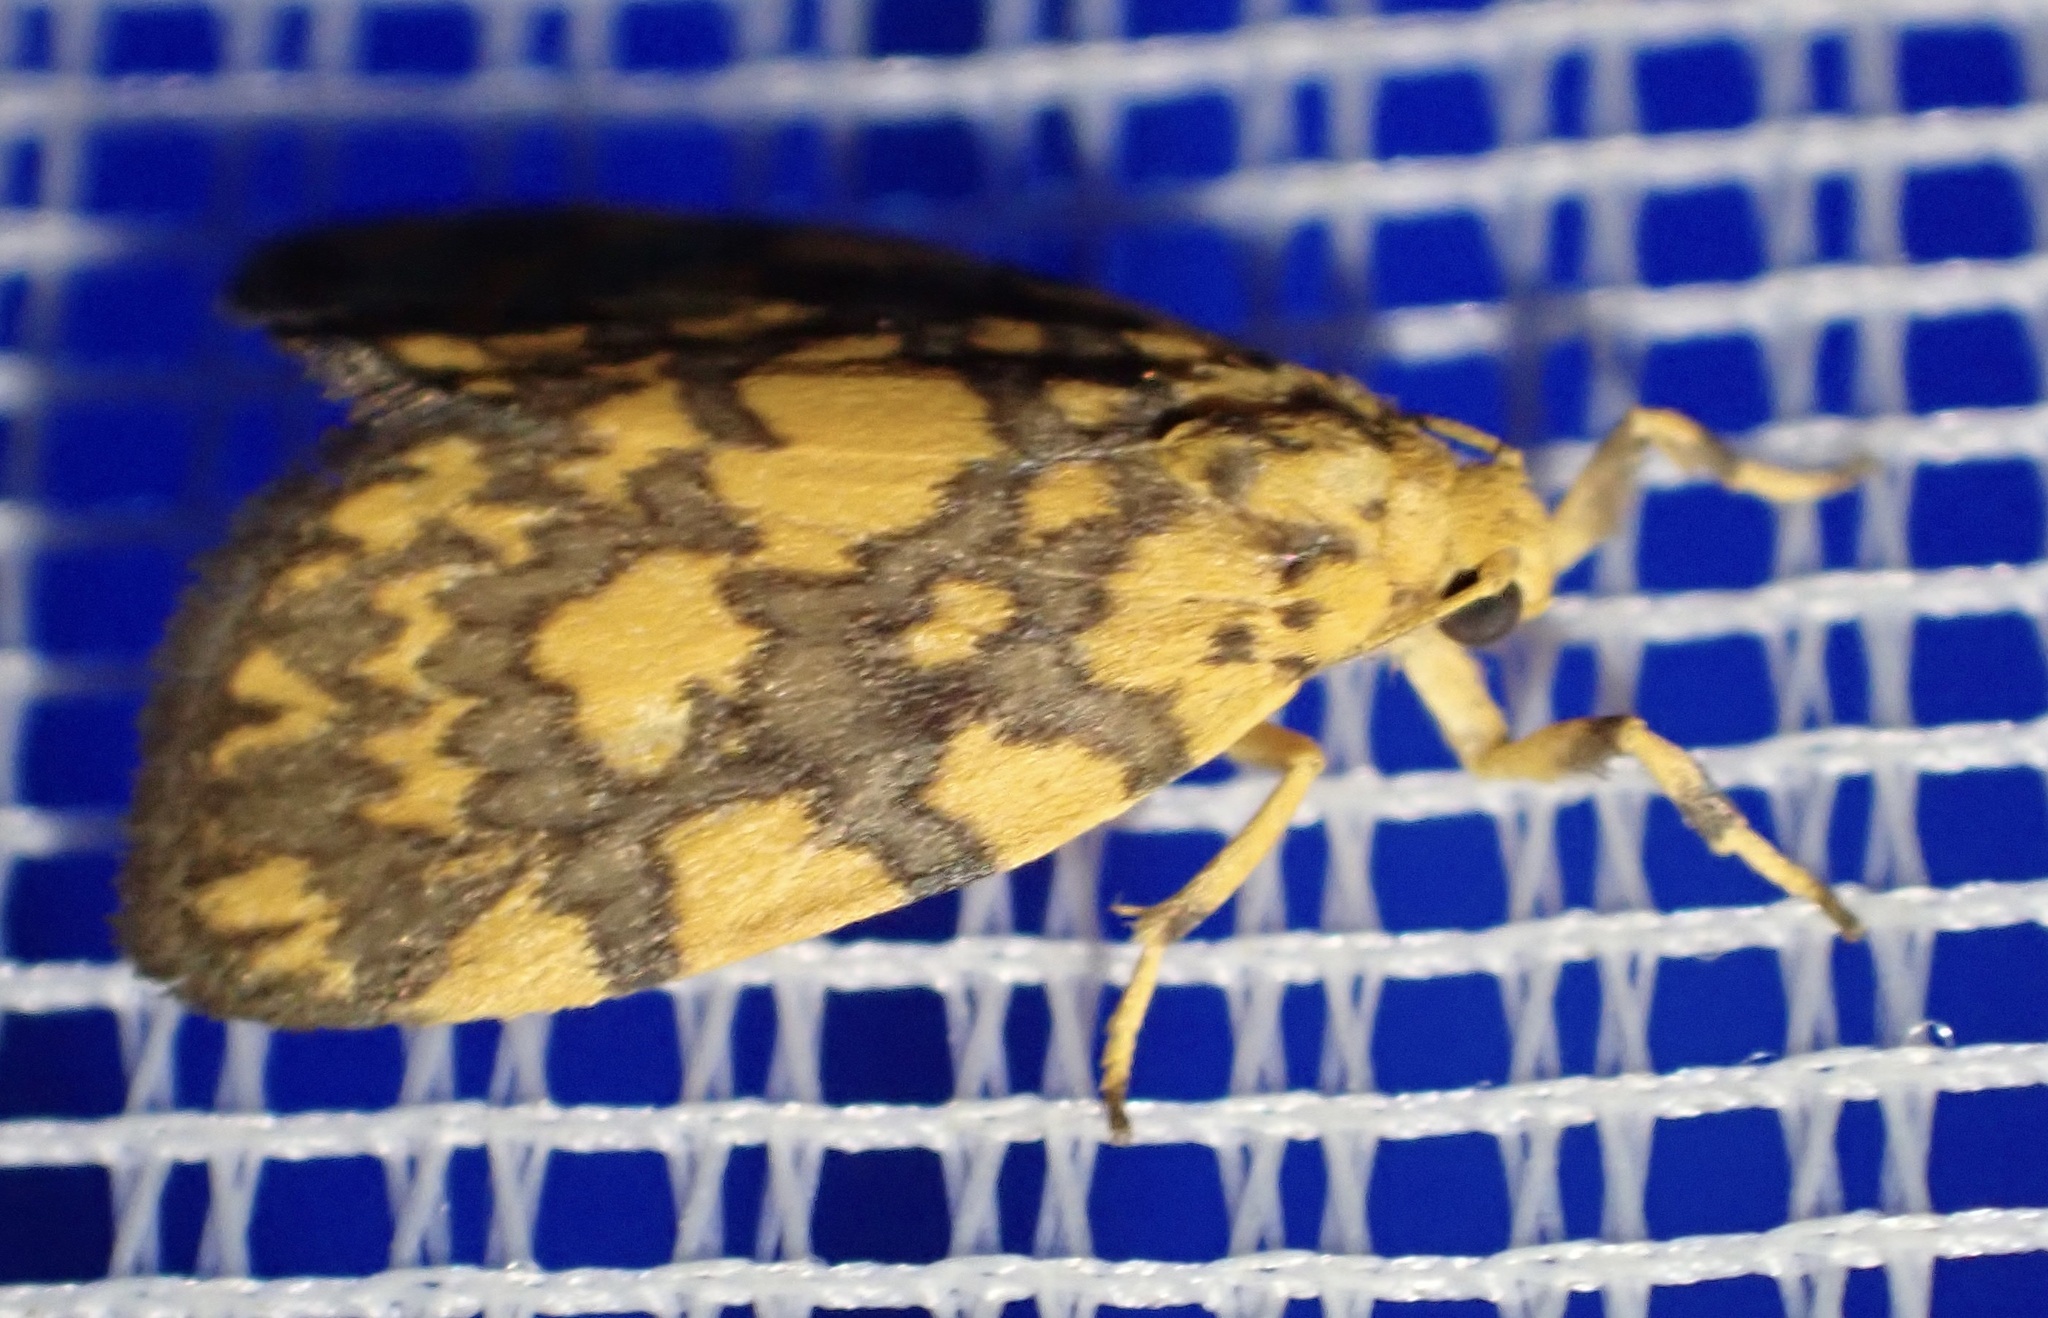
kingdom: Animalia
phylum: Arthropoda
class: Insecta
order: Lepidoptera
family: Erebidae
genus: Asura
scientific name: Asura citronopuncta
